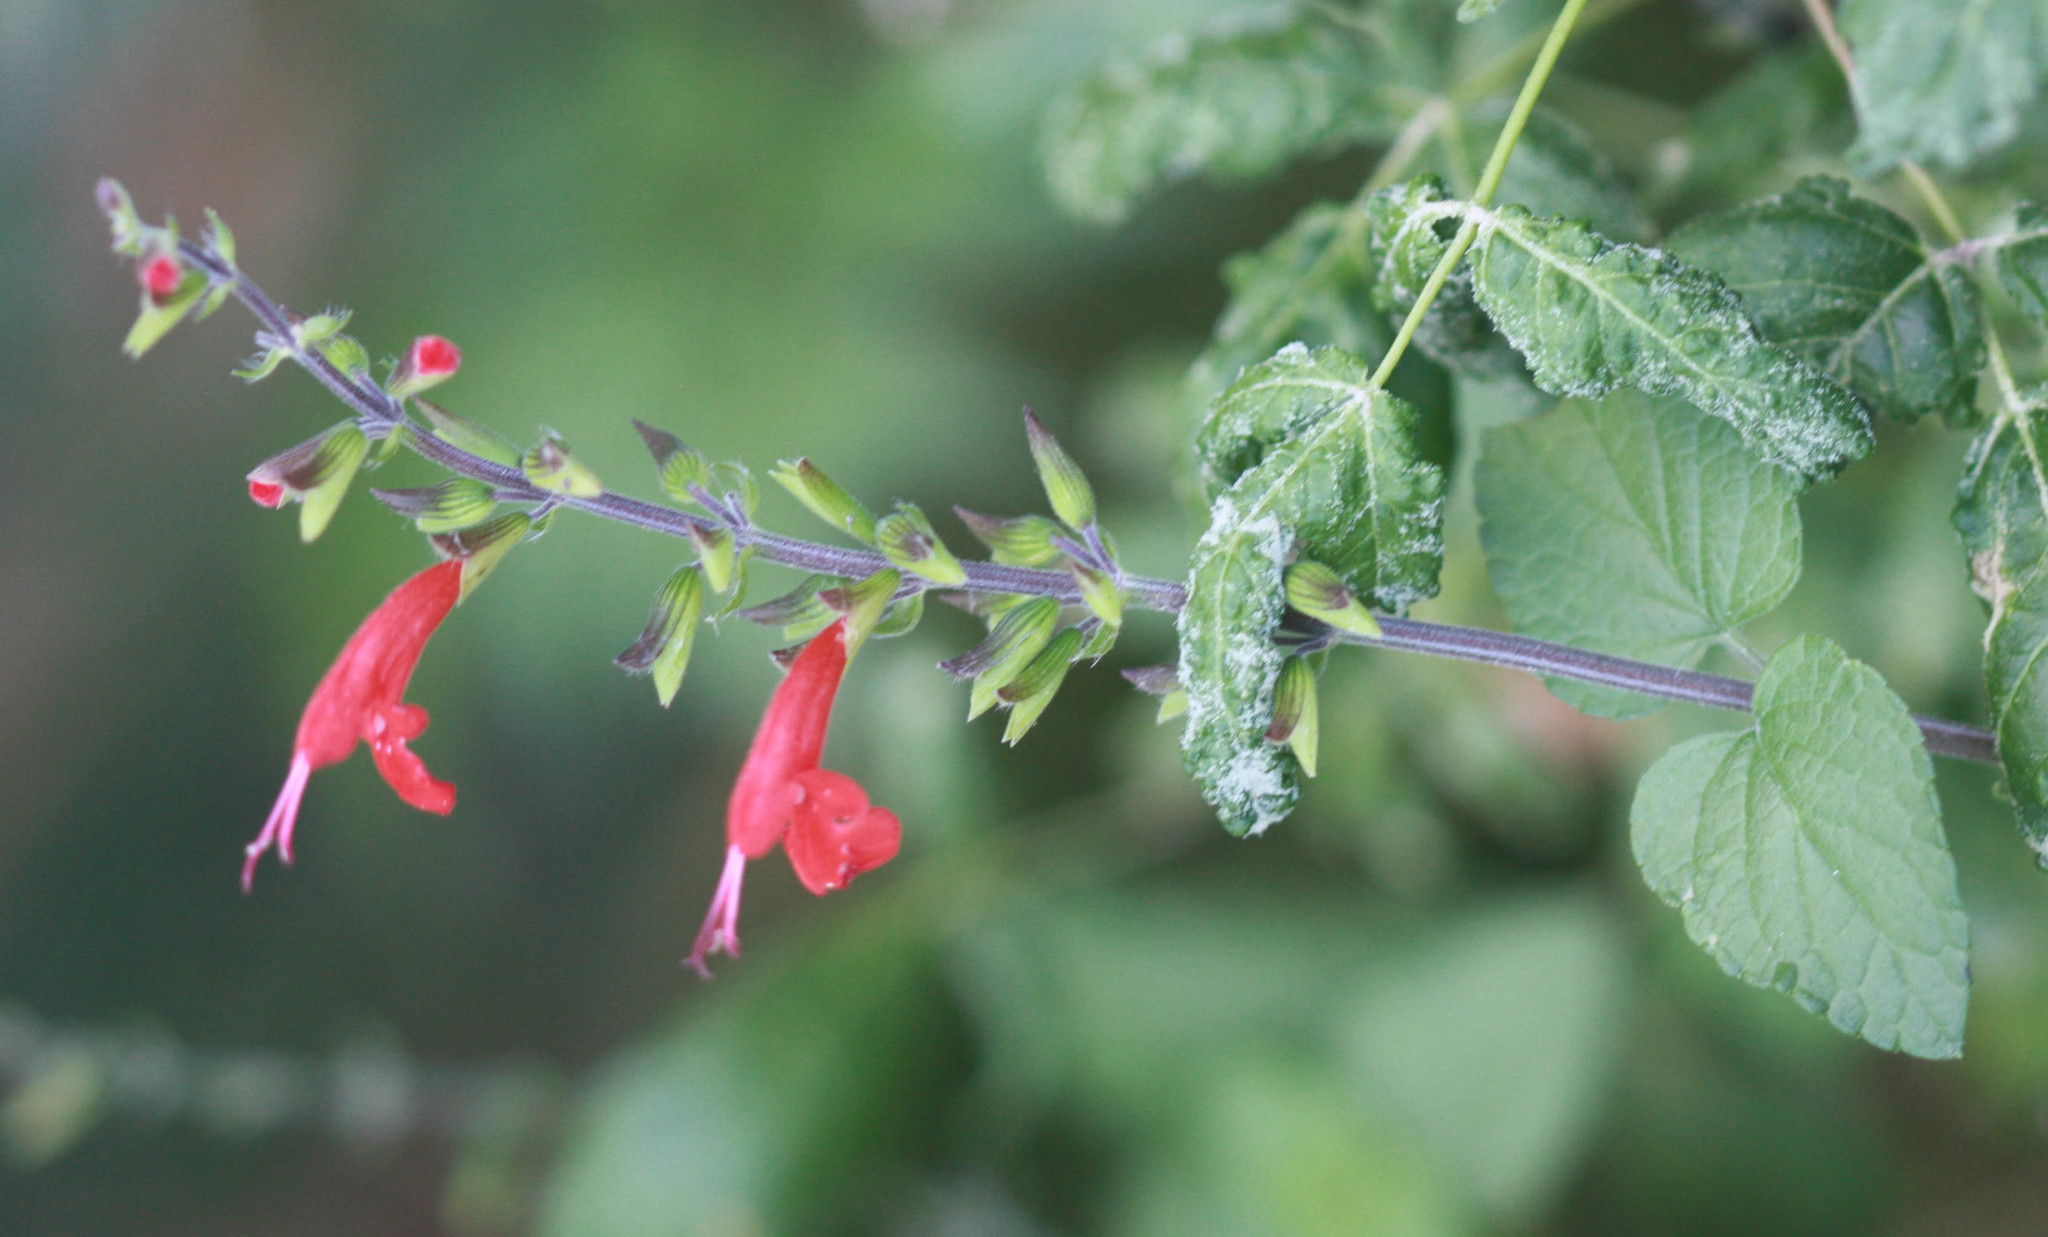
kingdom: Plantae
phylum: Tracheophyta
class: Magnoliopsida
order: Lamiales
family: Lamiaceae
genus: Salvia
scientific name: Salvia coccinea
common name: Blood sage
